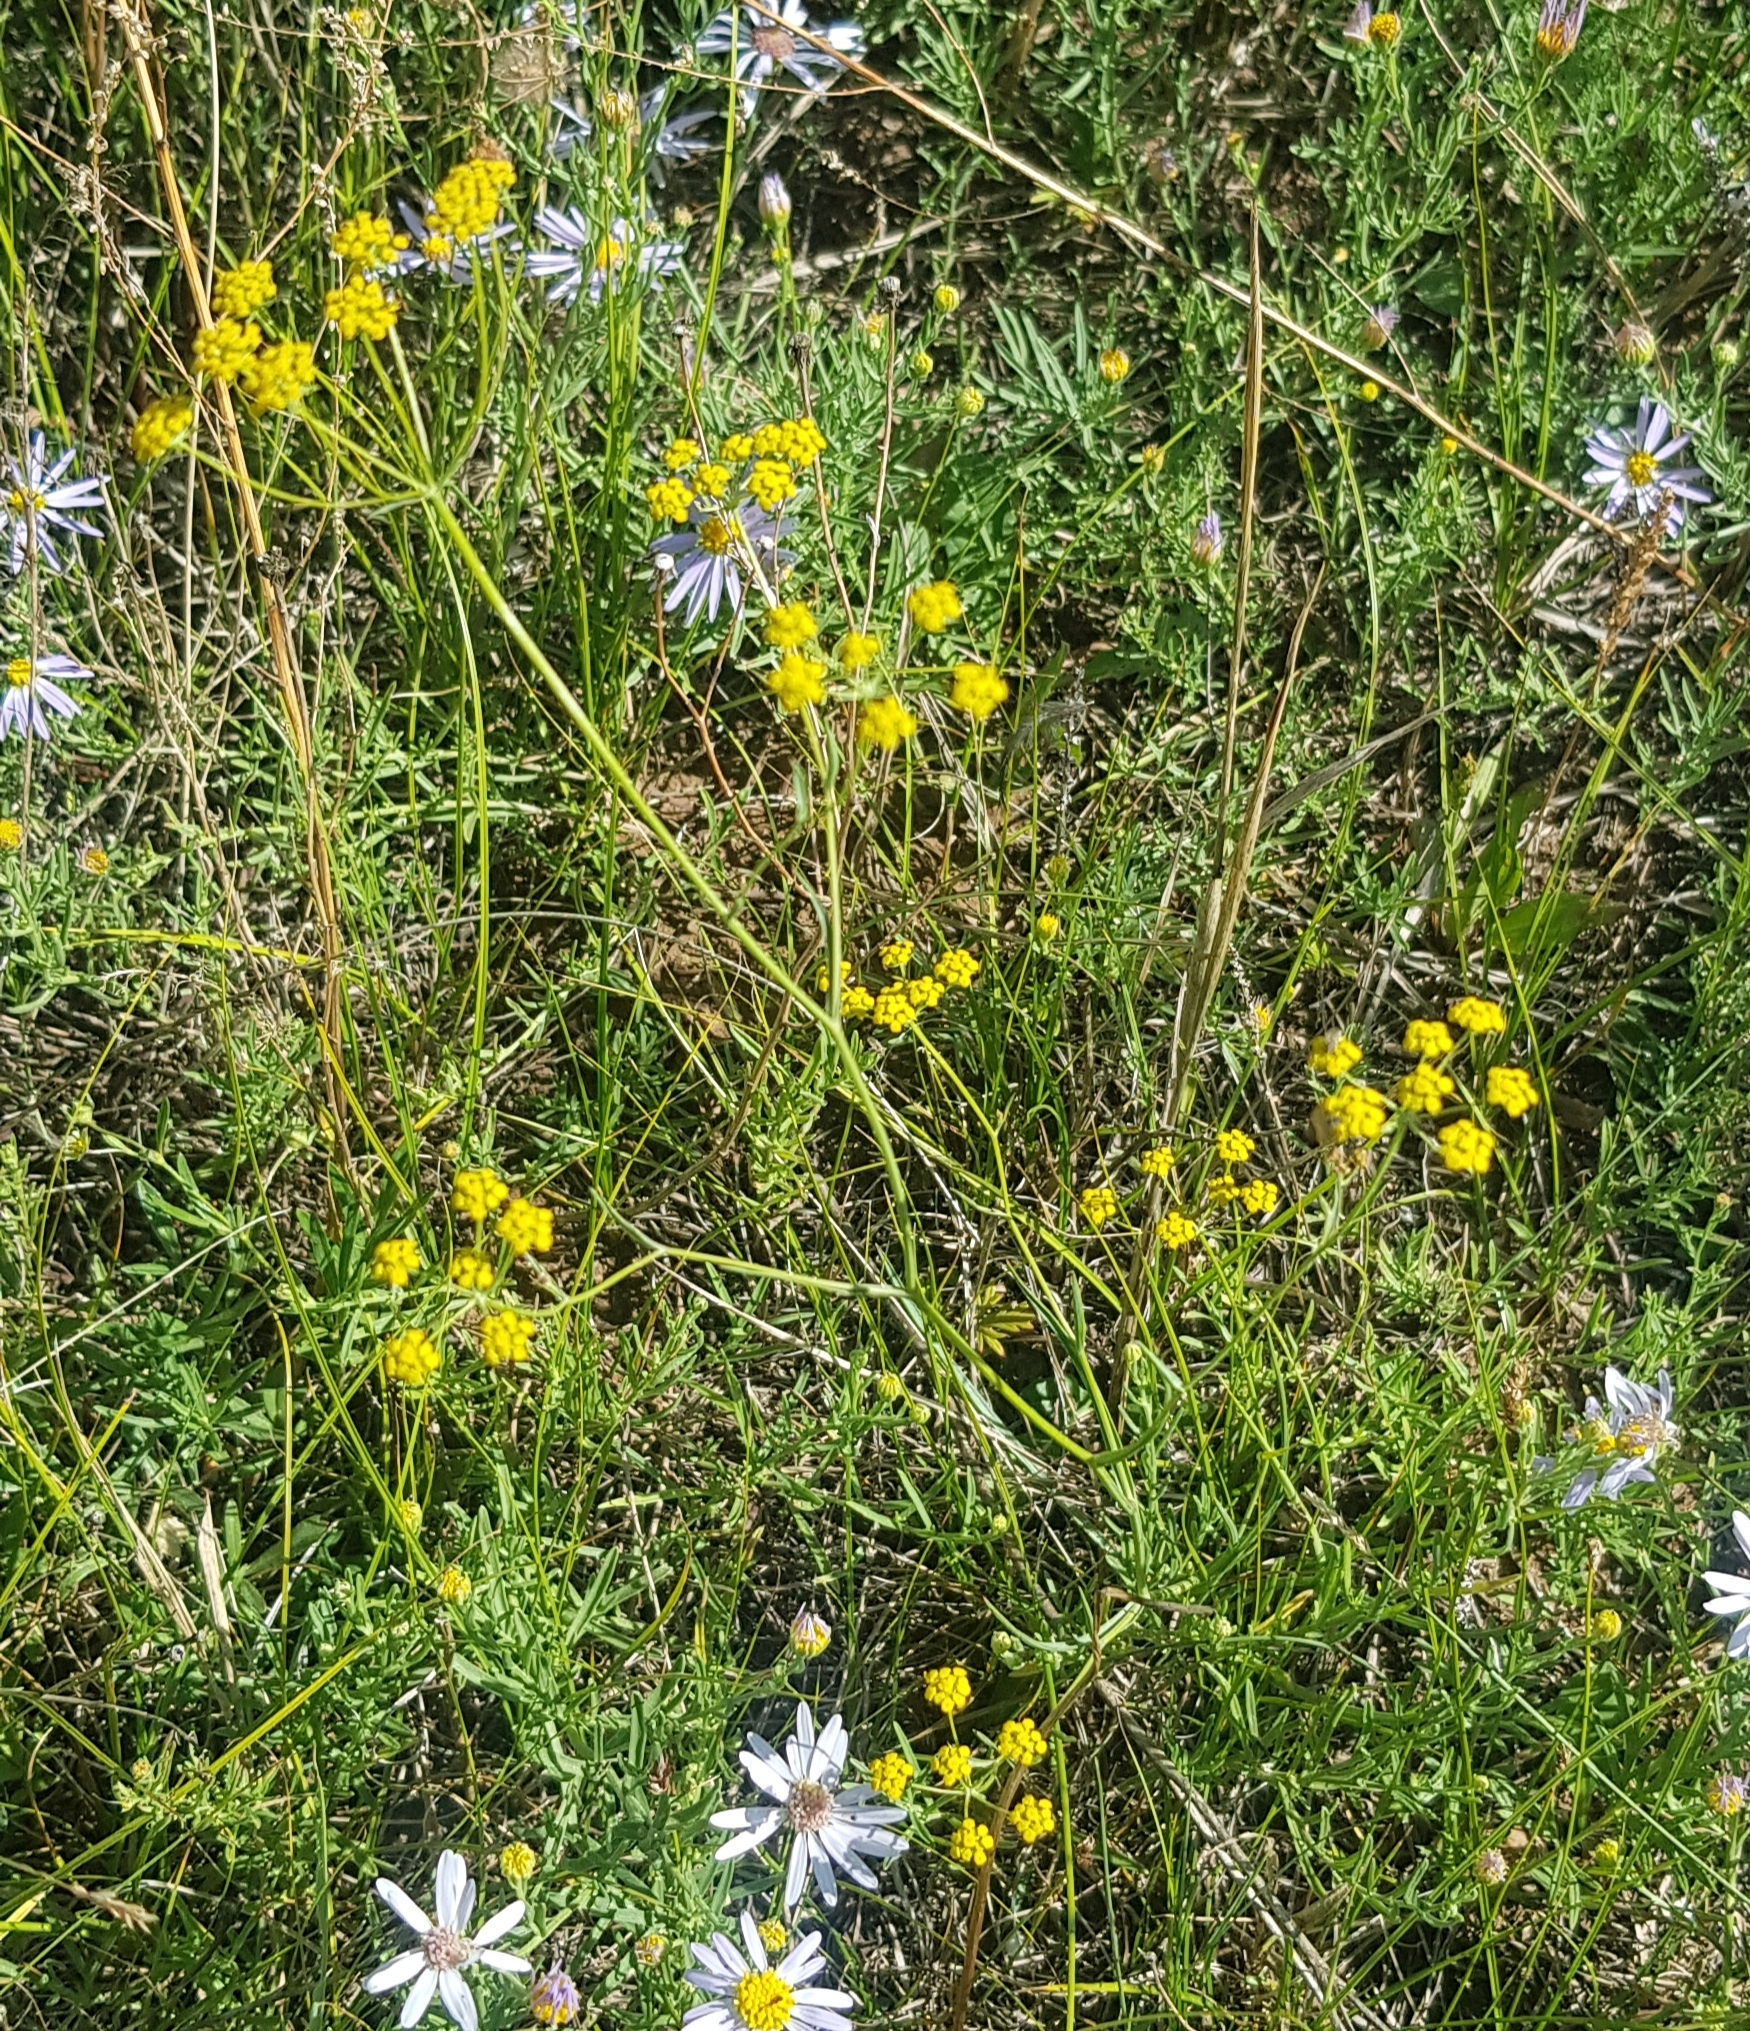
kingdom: Plantae
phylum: Tracheophyta
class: Magnoliopsida
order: Apiales
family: Apiaceae
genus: Bupleurum
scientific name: Bupleurum scorzonerifolium
